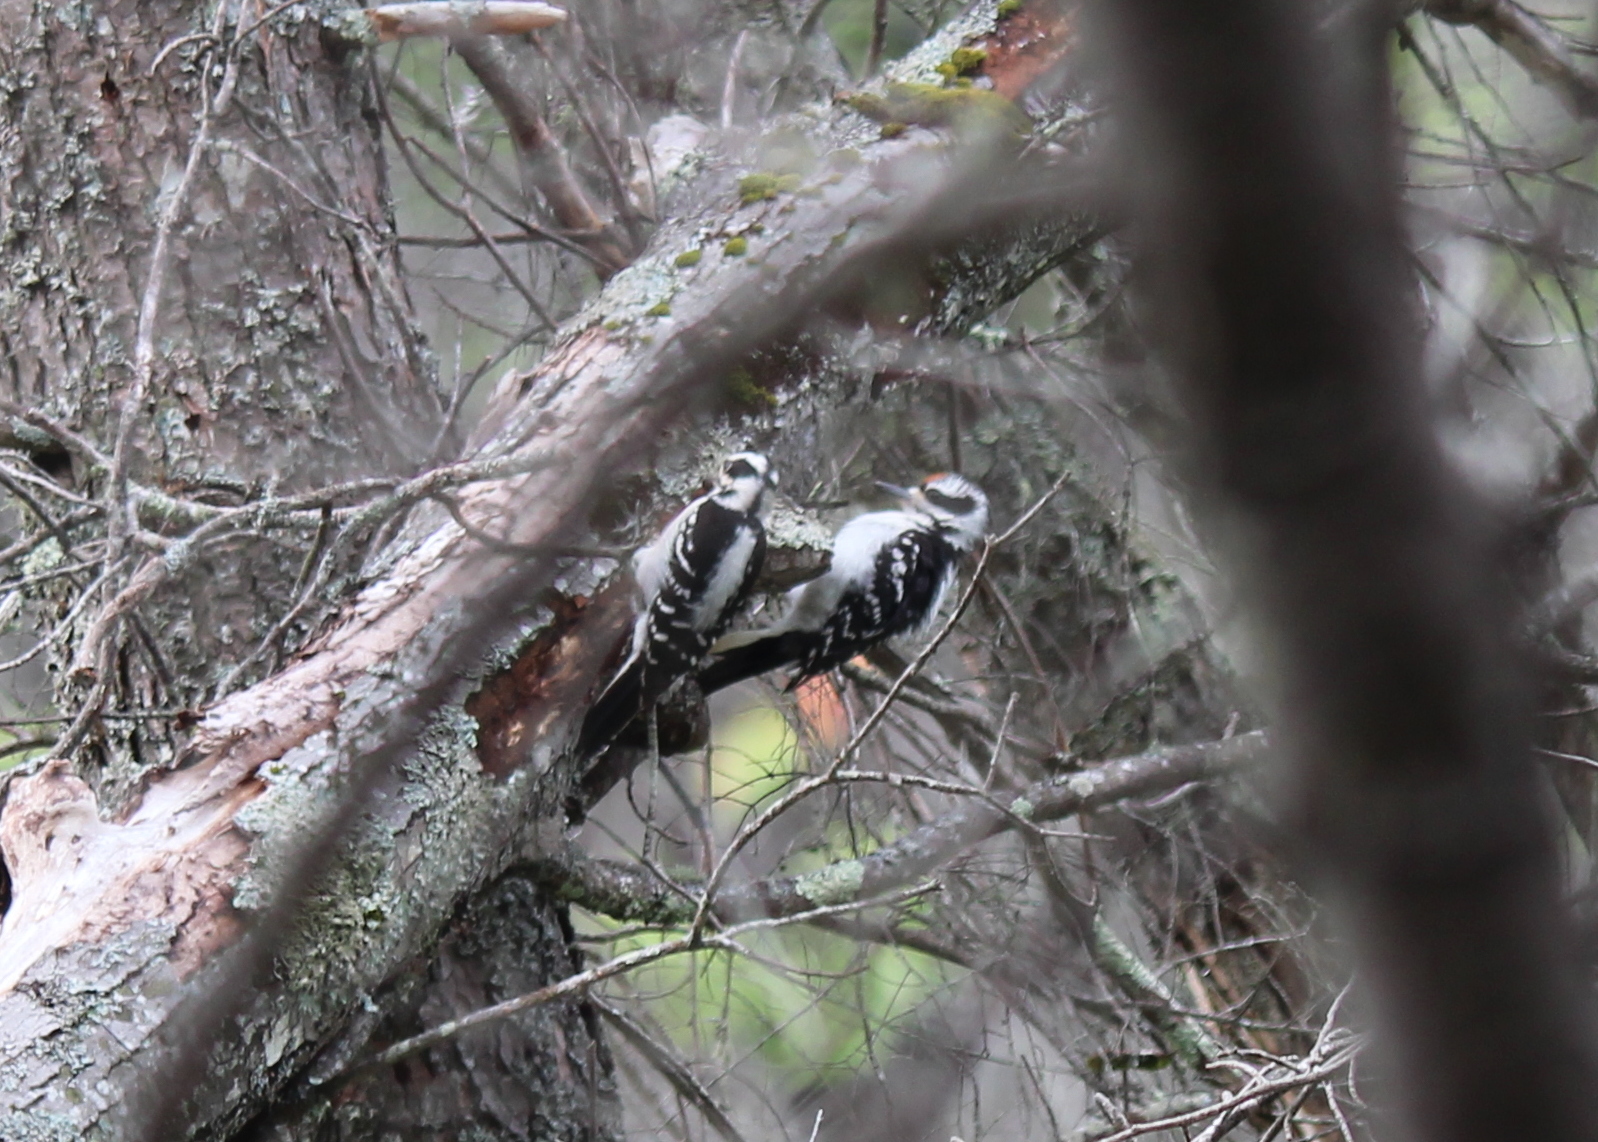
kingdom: Animalia
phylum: Chordata
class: Aves
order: Piciformes
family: Picidae
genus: Leuconotopicus
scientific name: Leuconotopicus villosus
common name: Hairy woodpecker
